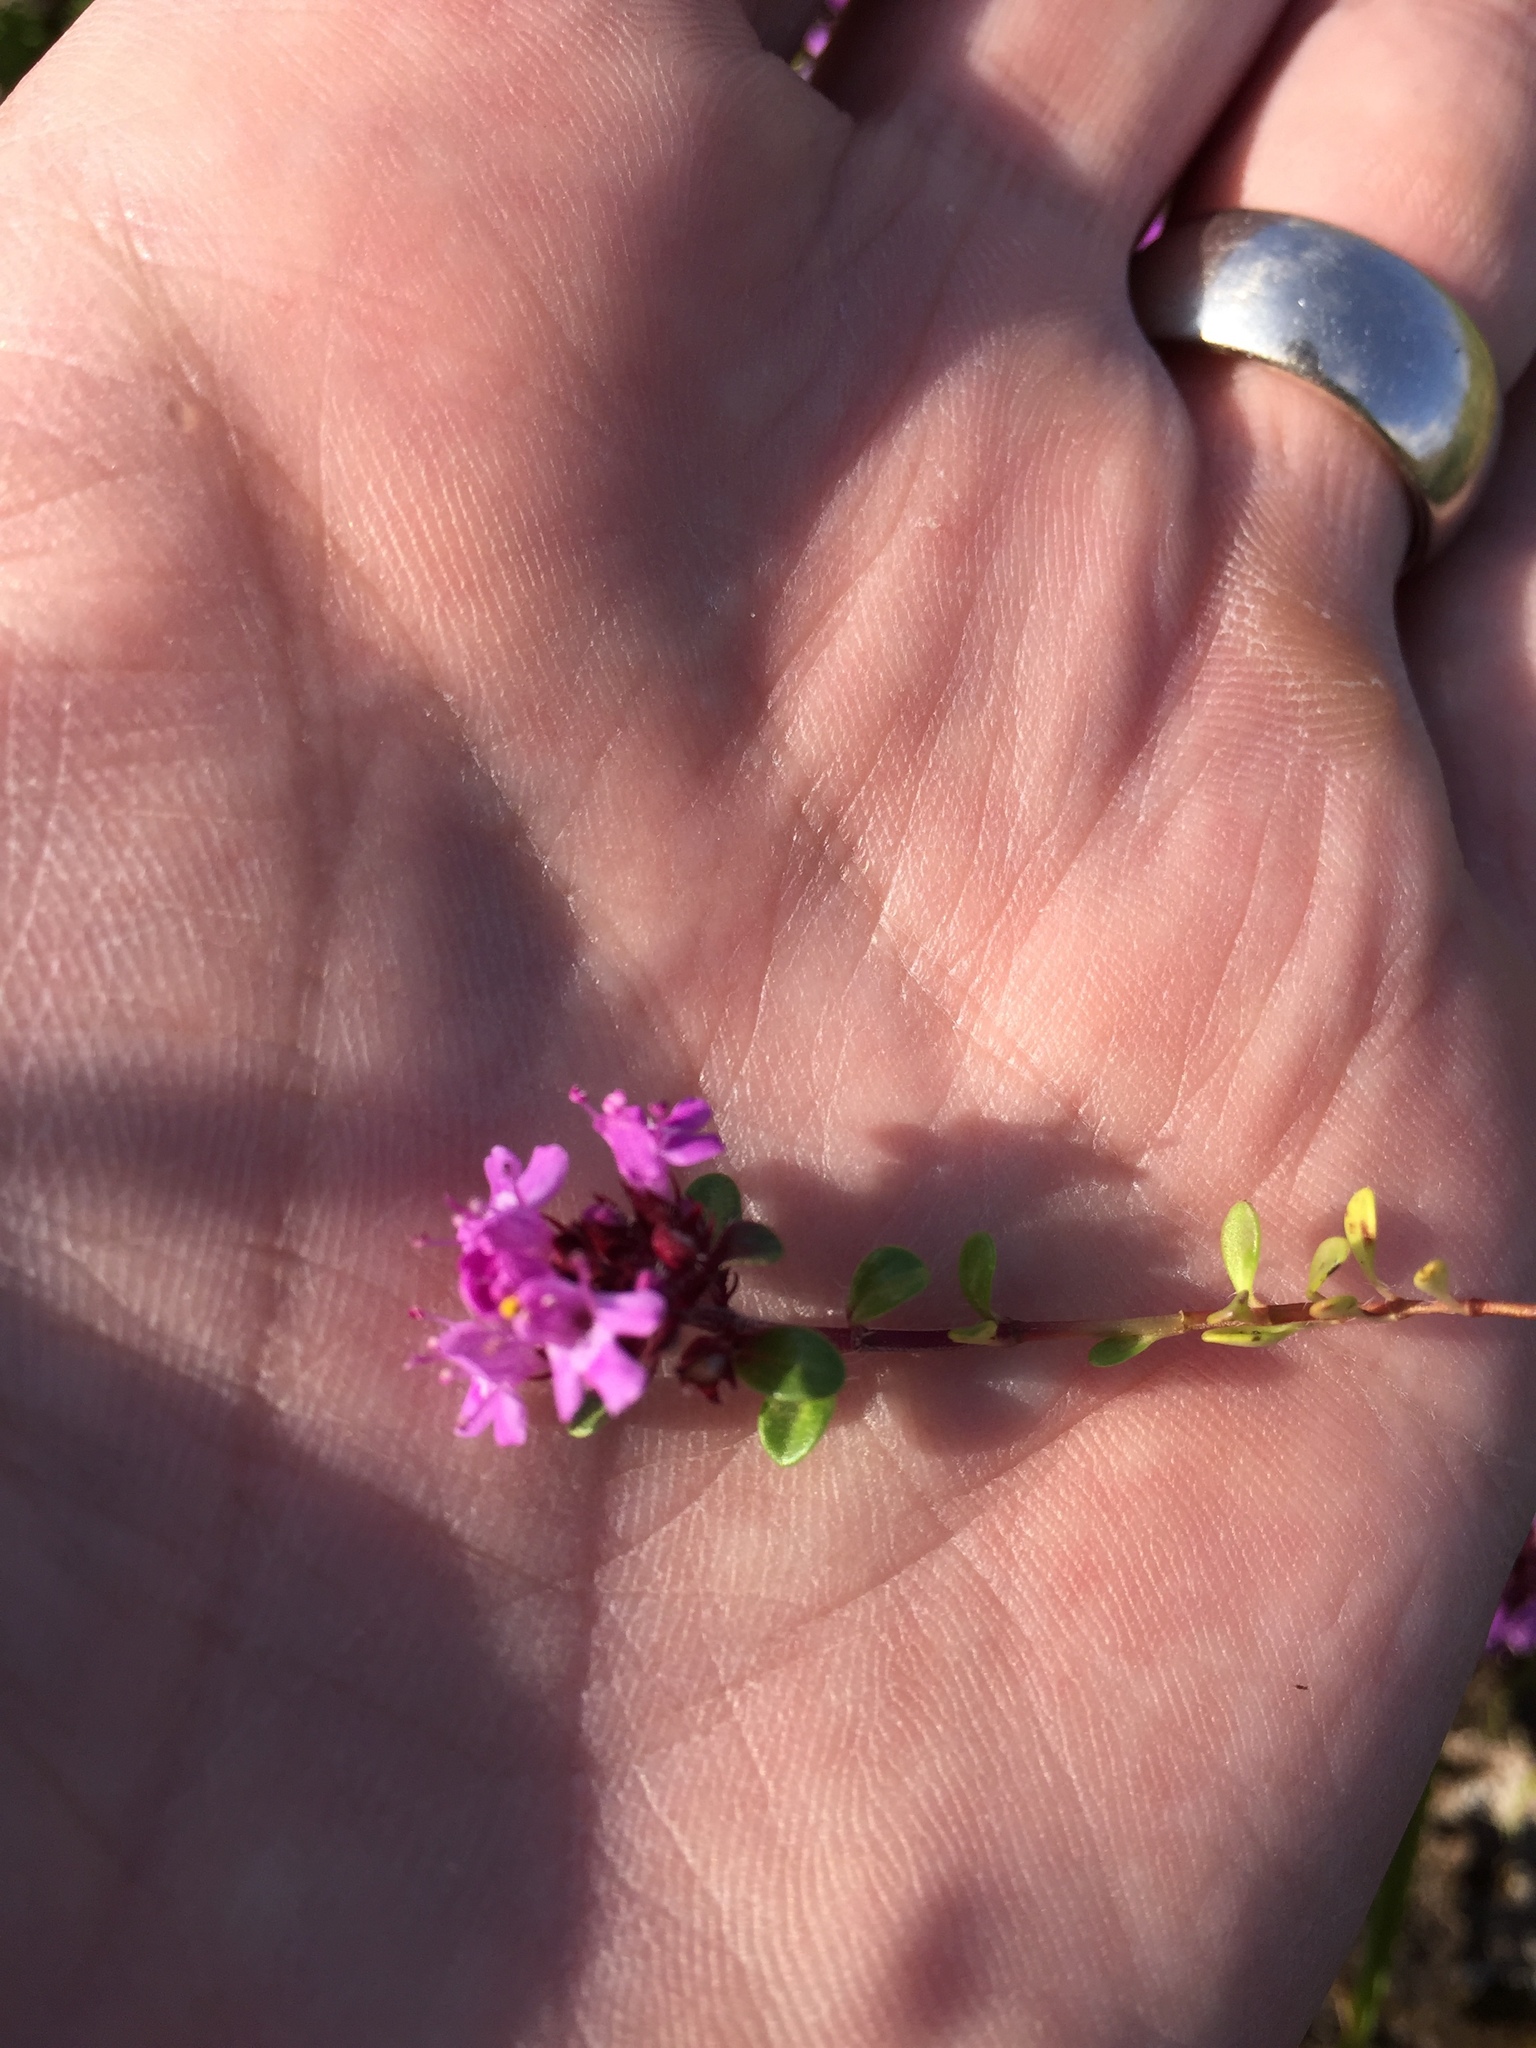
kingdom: Plantae
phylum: Tracheophyta
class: Magnoliopsida
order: Lamiales
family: Lamiaceae
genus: Thymus
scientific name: Thymus praecox
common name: Wild thyme
